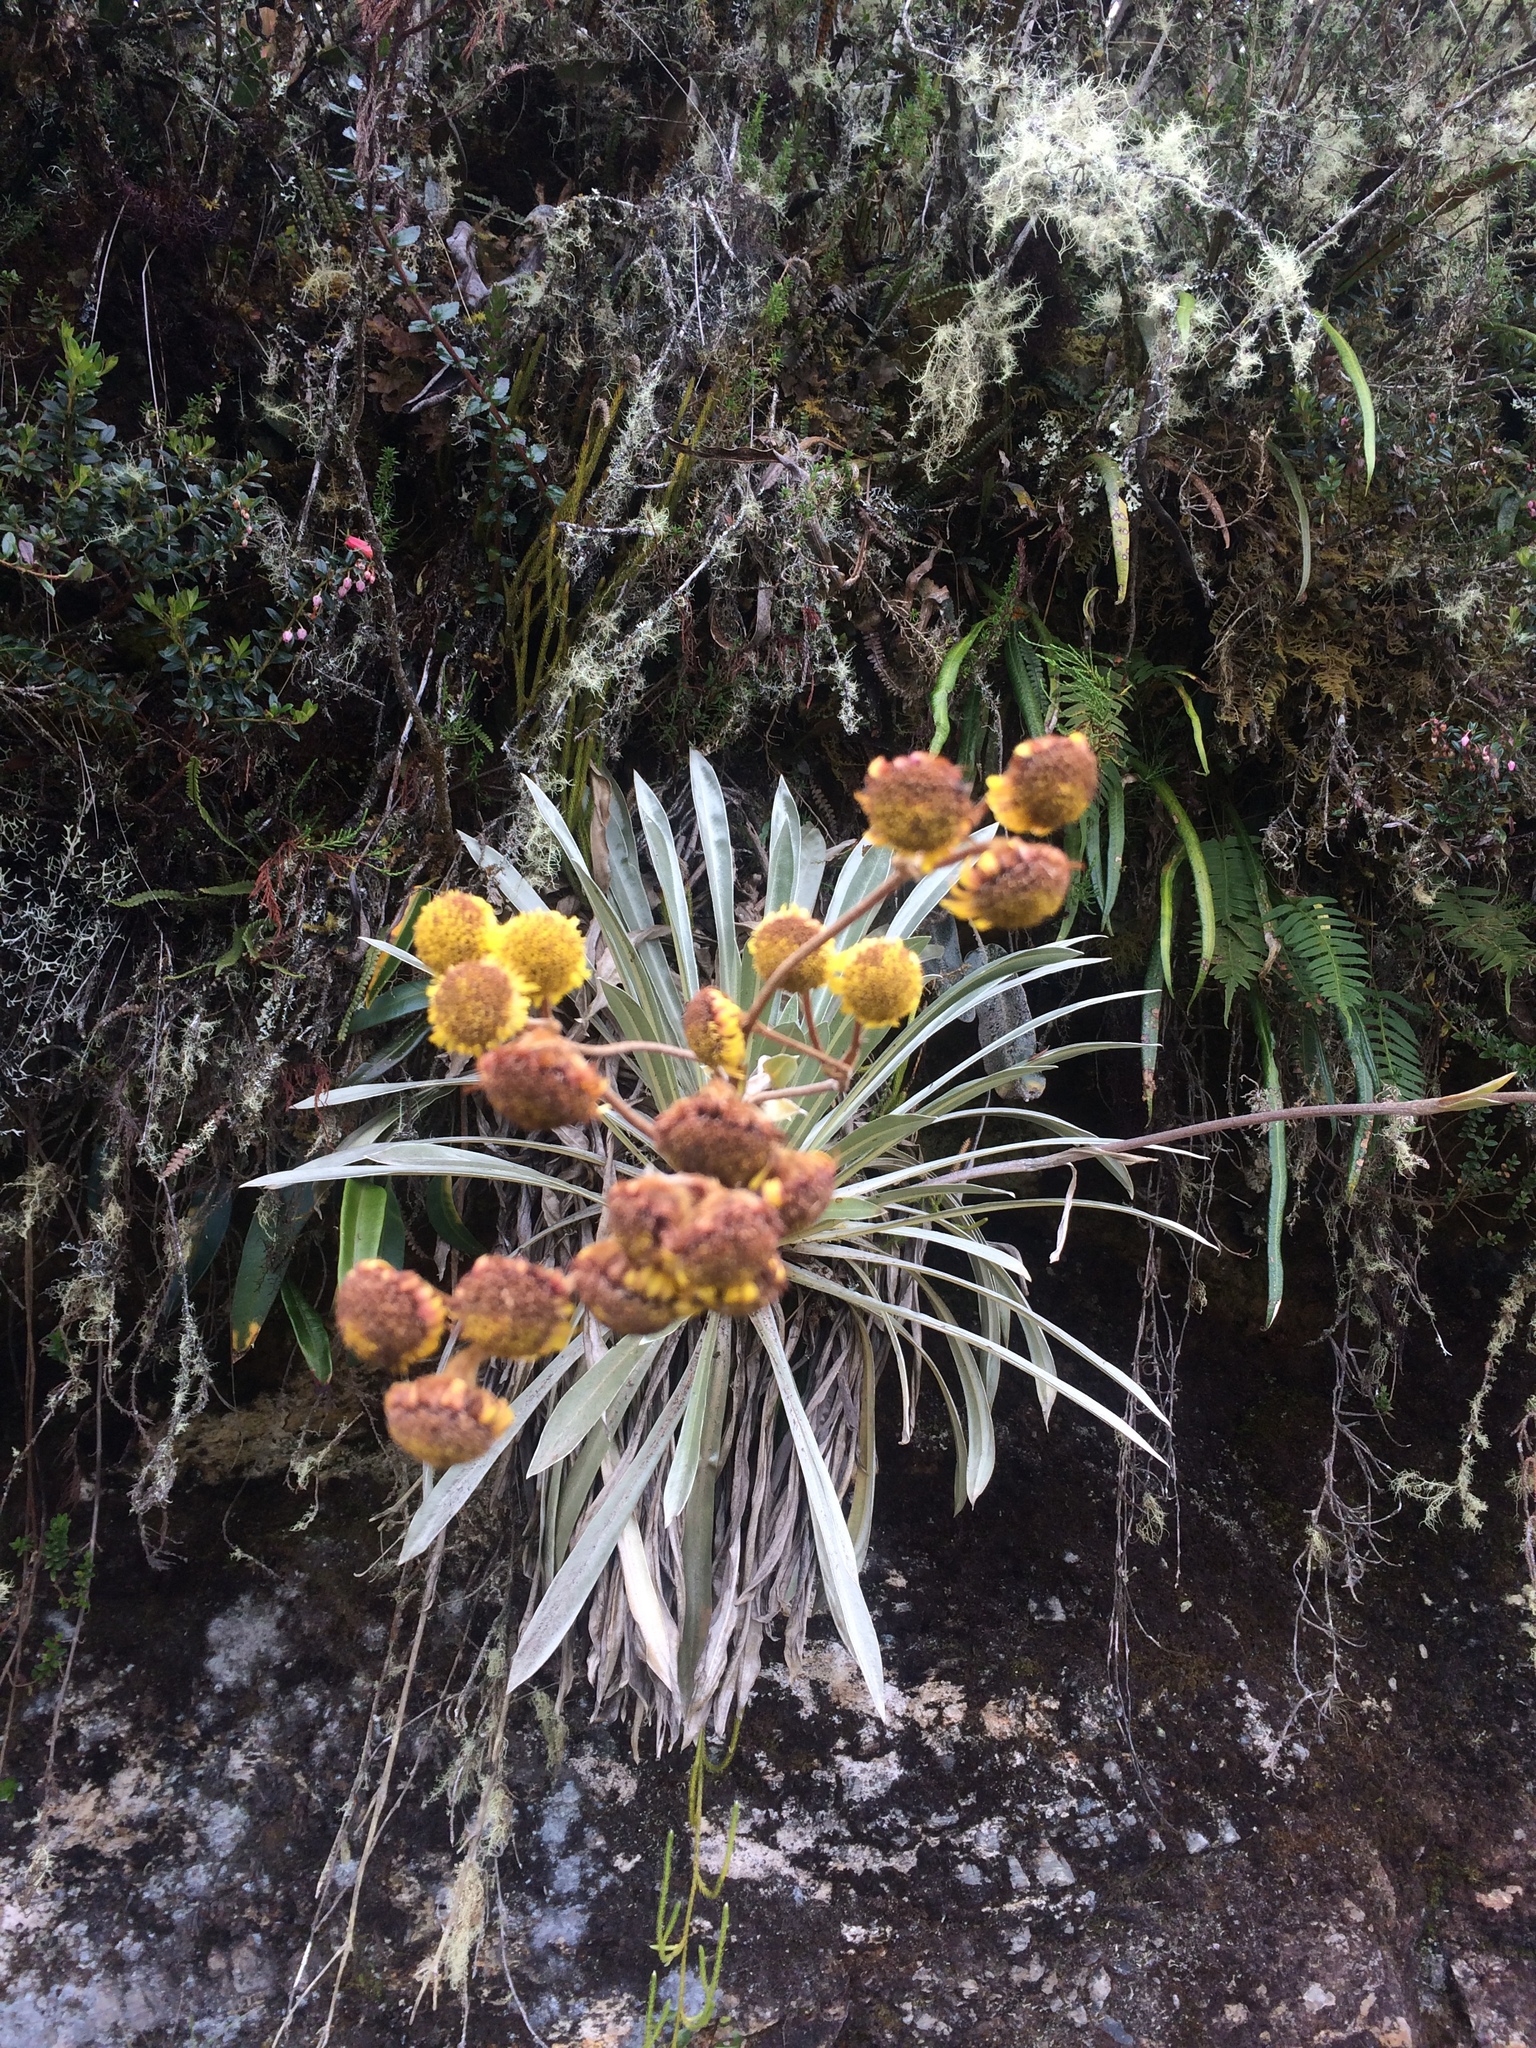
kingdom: Plantae
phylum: Tracheophyta
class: Magnoliopsida
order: Asterales
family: Asteraceae
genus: Espeletia
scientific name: Espeletia argentea
